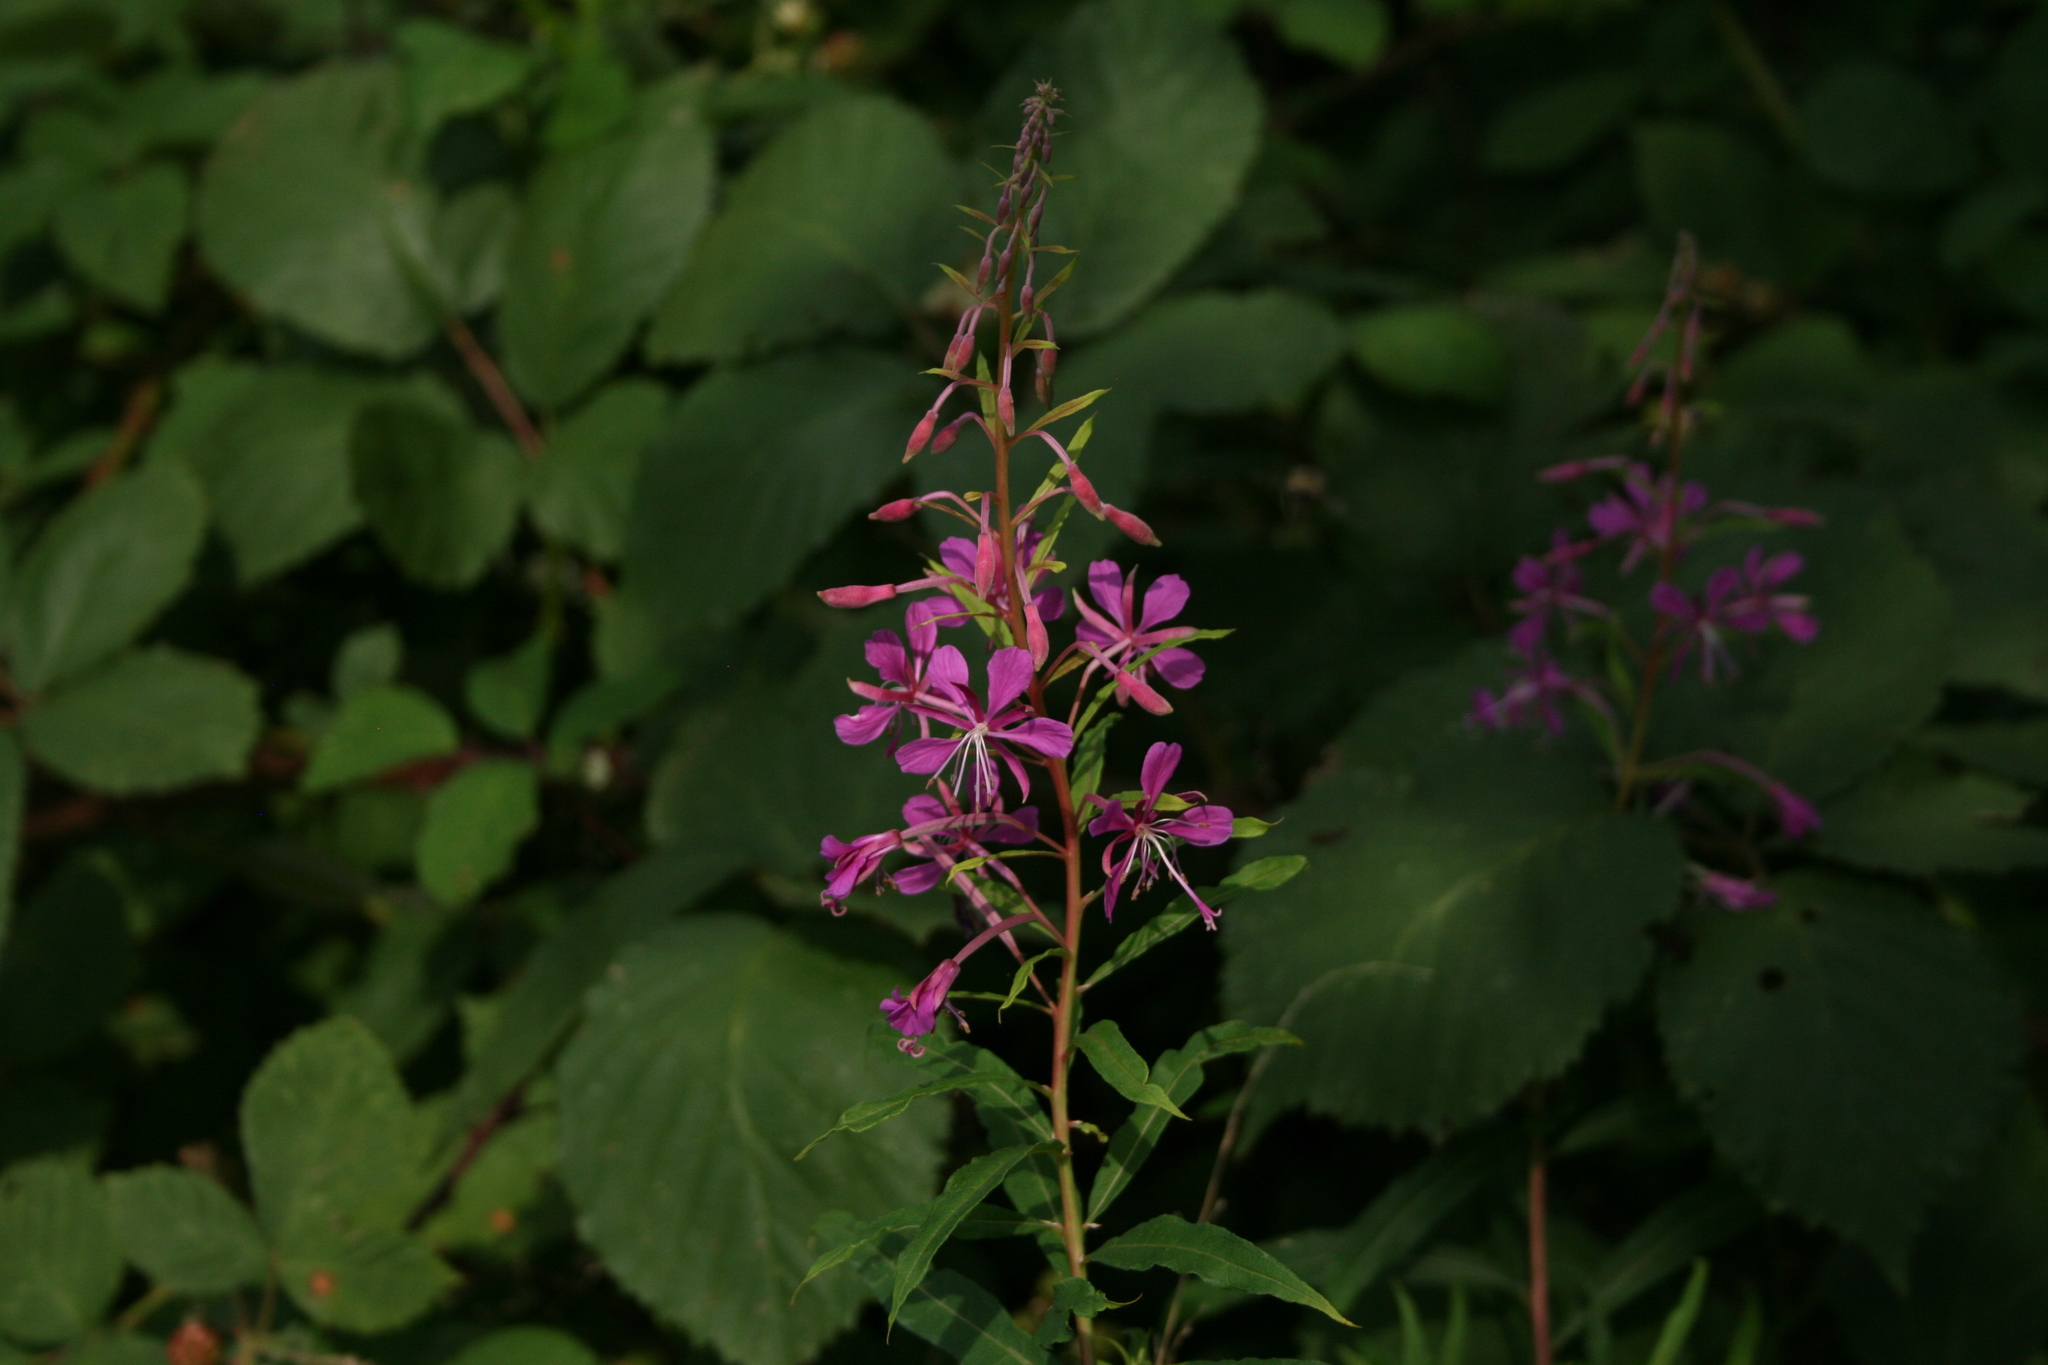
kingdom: Plantae
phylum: Tracheophyta
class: Magnoliopsida
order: Myrtales
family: Onagraceae
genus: Chamaenerion
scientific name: Chamaenerion angustifolium
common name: Fireweed
